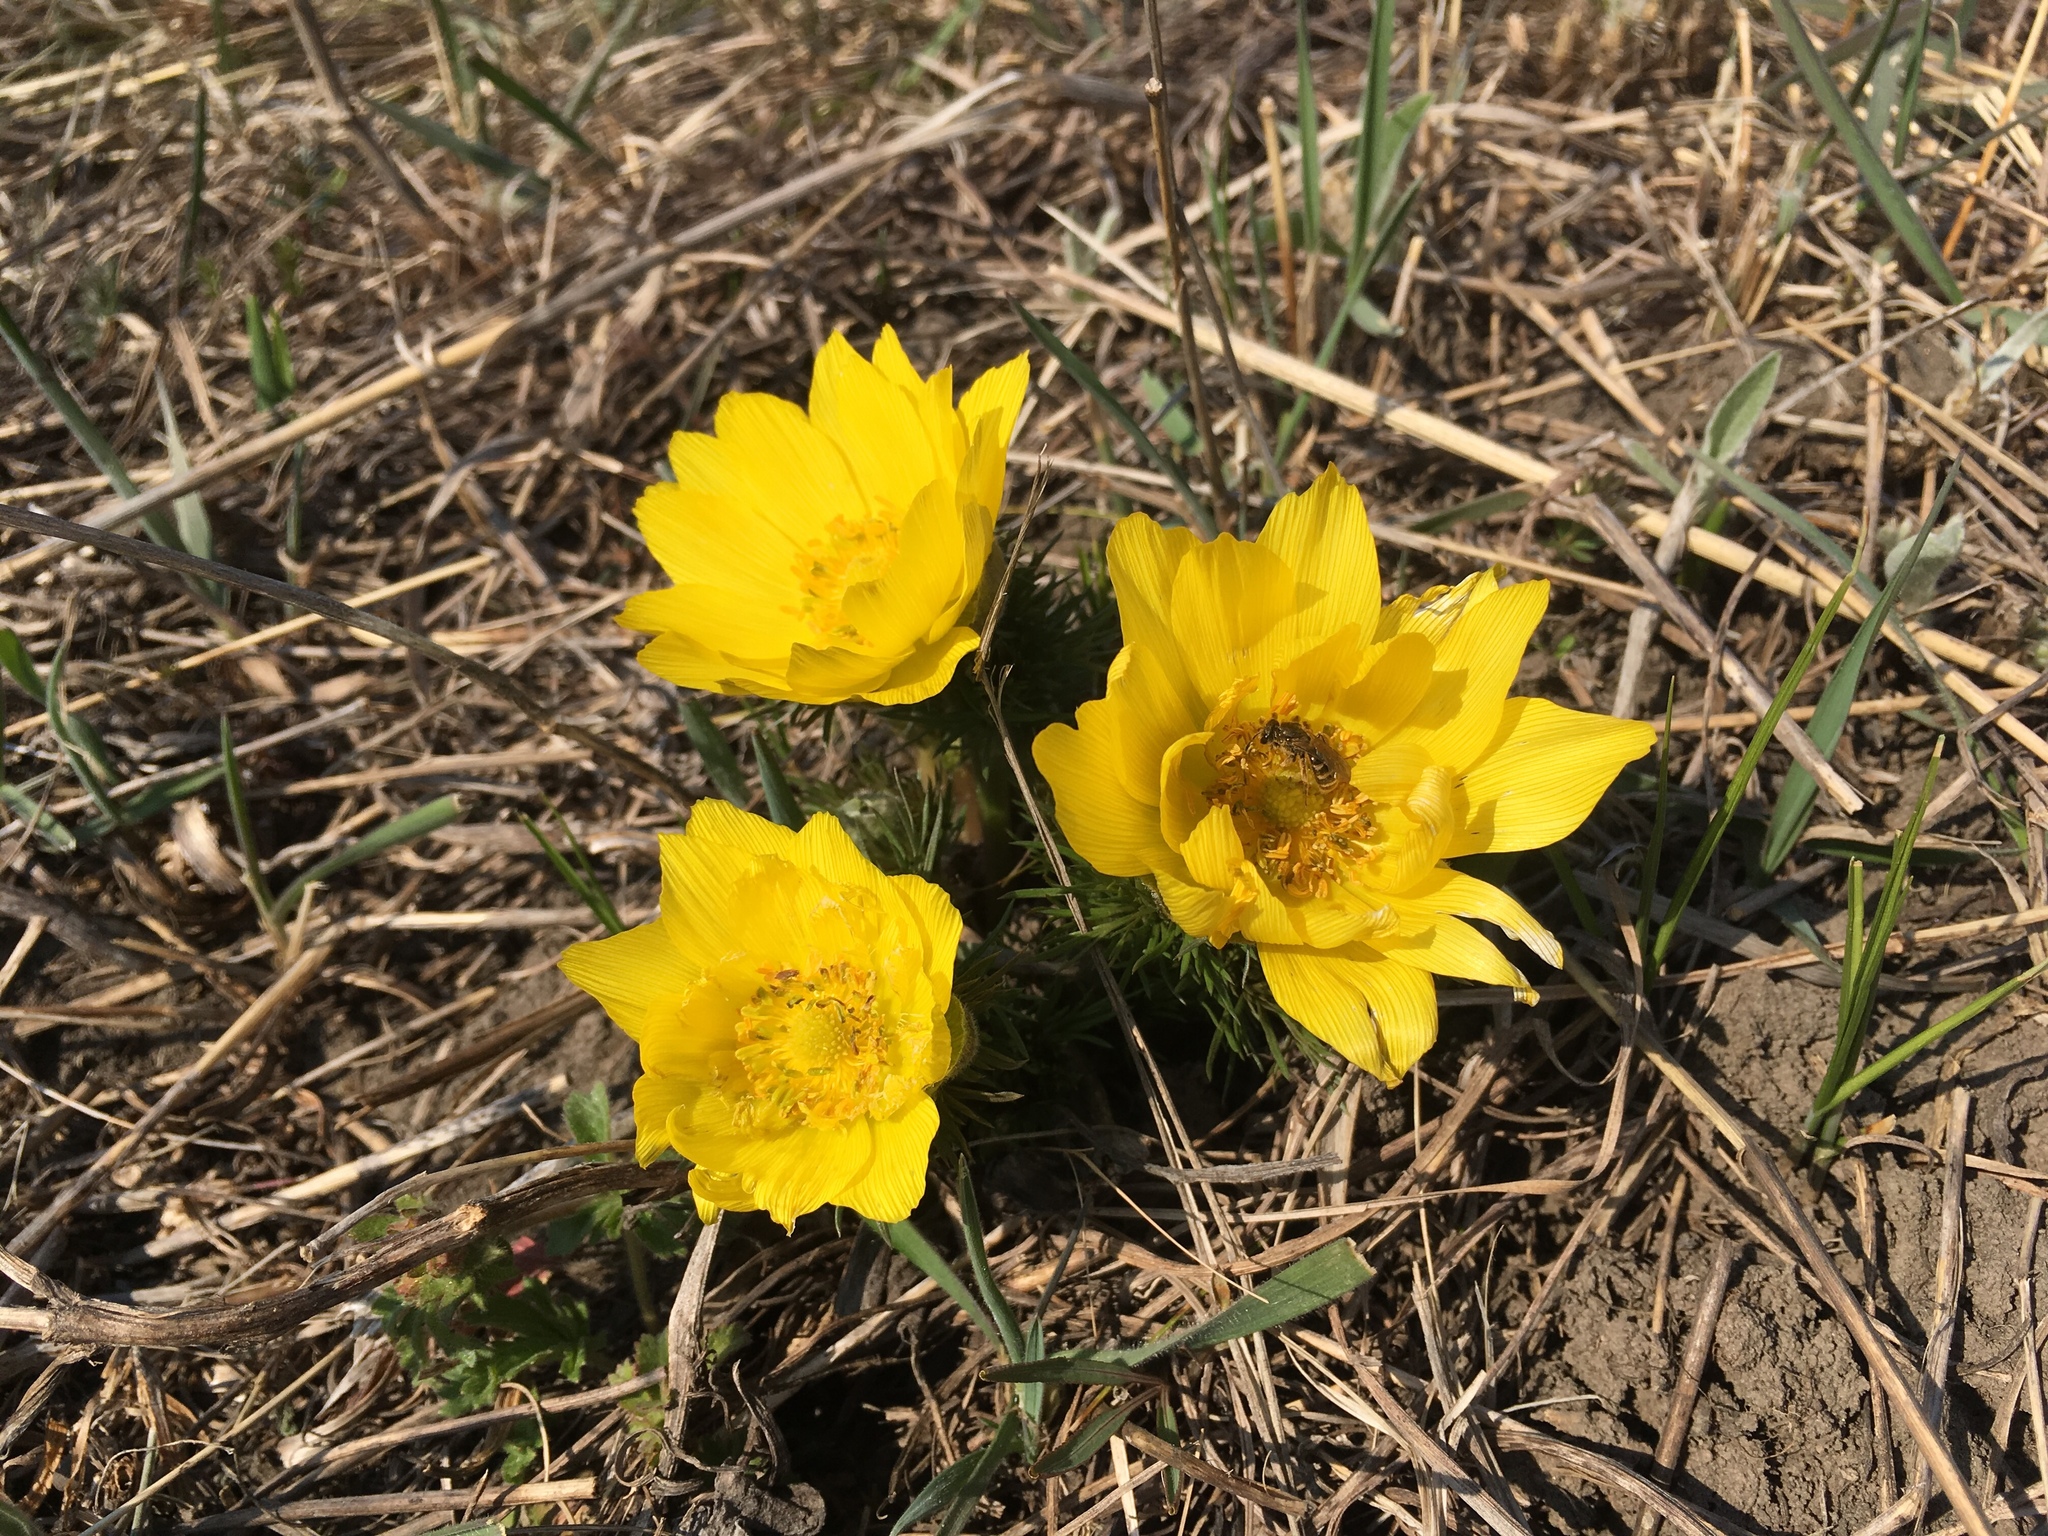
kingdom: Plantae
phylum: Tracheophyta
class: Magnoliopsida
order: Ranunculales
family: Ranunculaceae
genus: Adonis
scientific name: Adonis vernalis
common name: Yellow pheasants-eye
